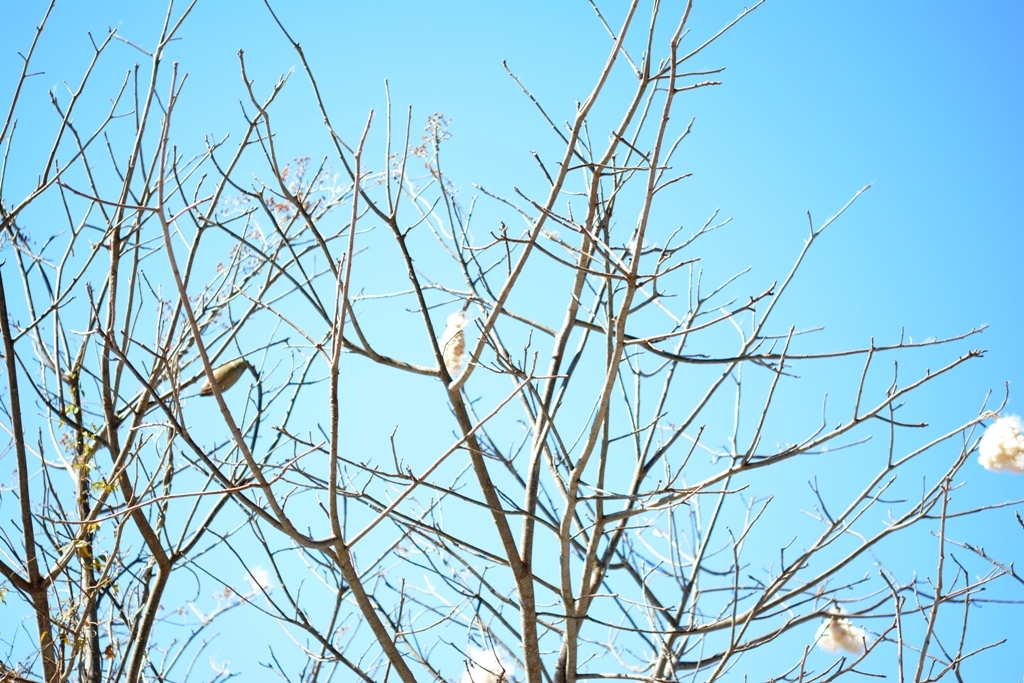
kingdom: Plantae
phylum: Tracheophyta
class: Magnoliopsida
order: Malvales
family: Malvaceae
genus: Ceiba
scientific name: Ceiba aesculifolia
